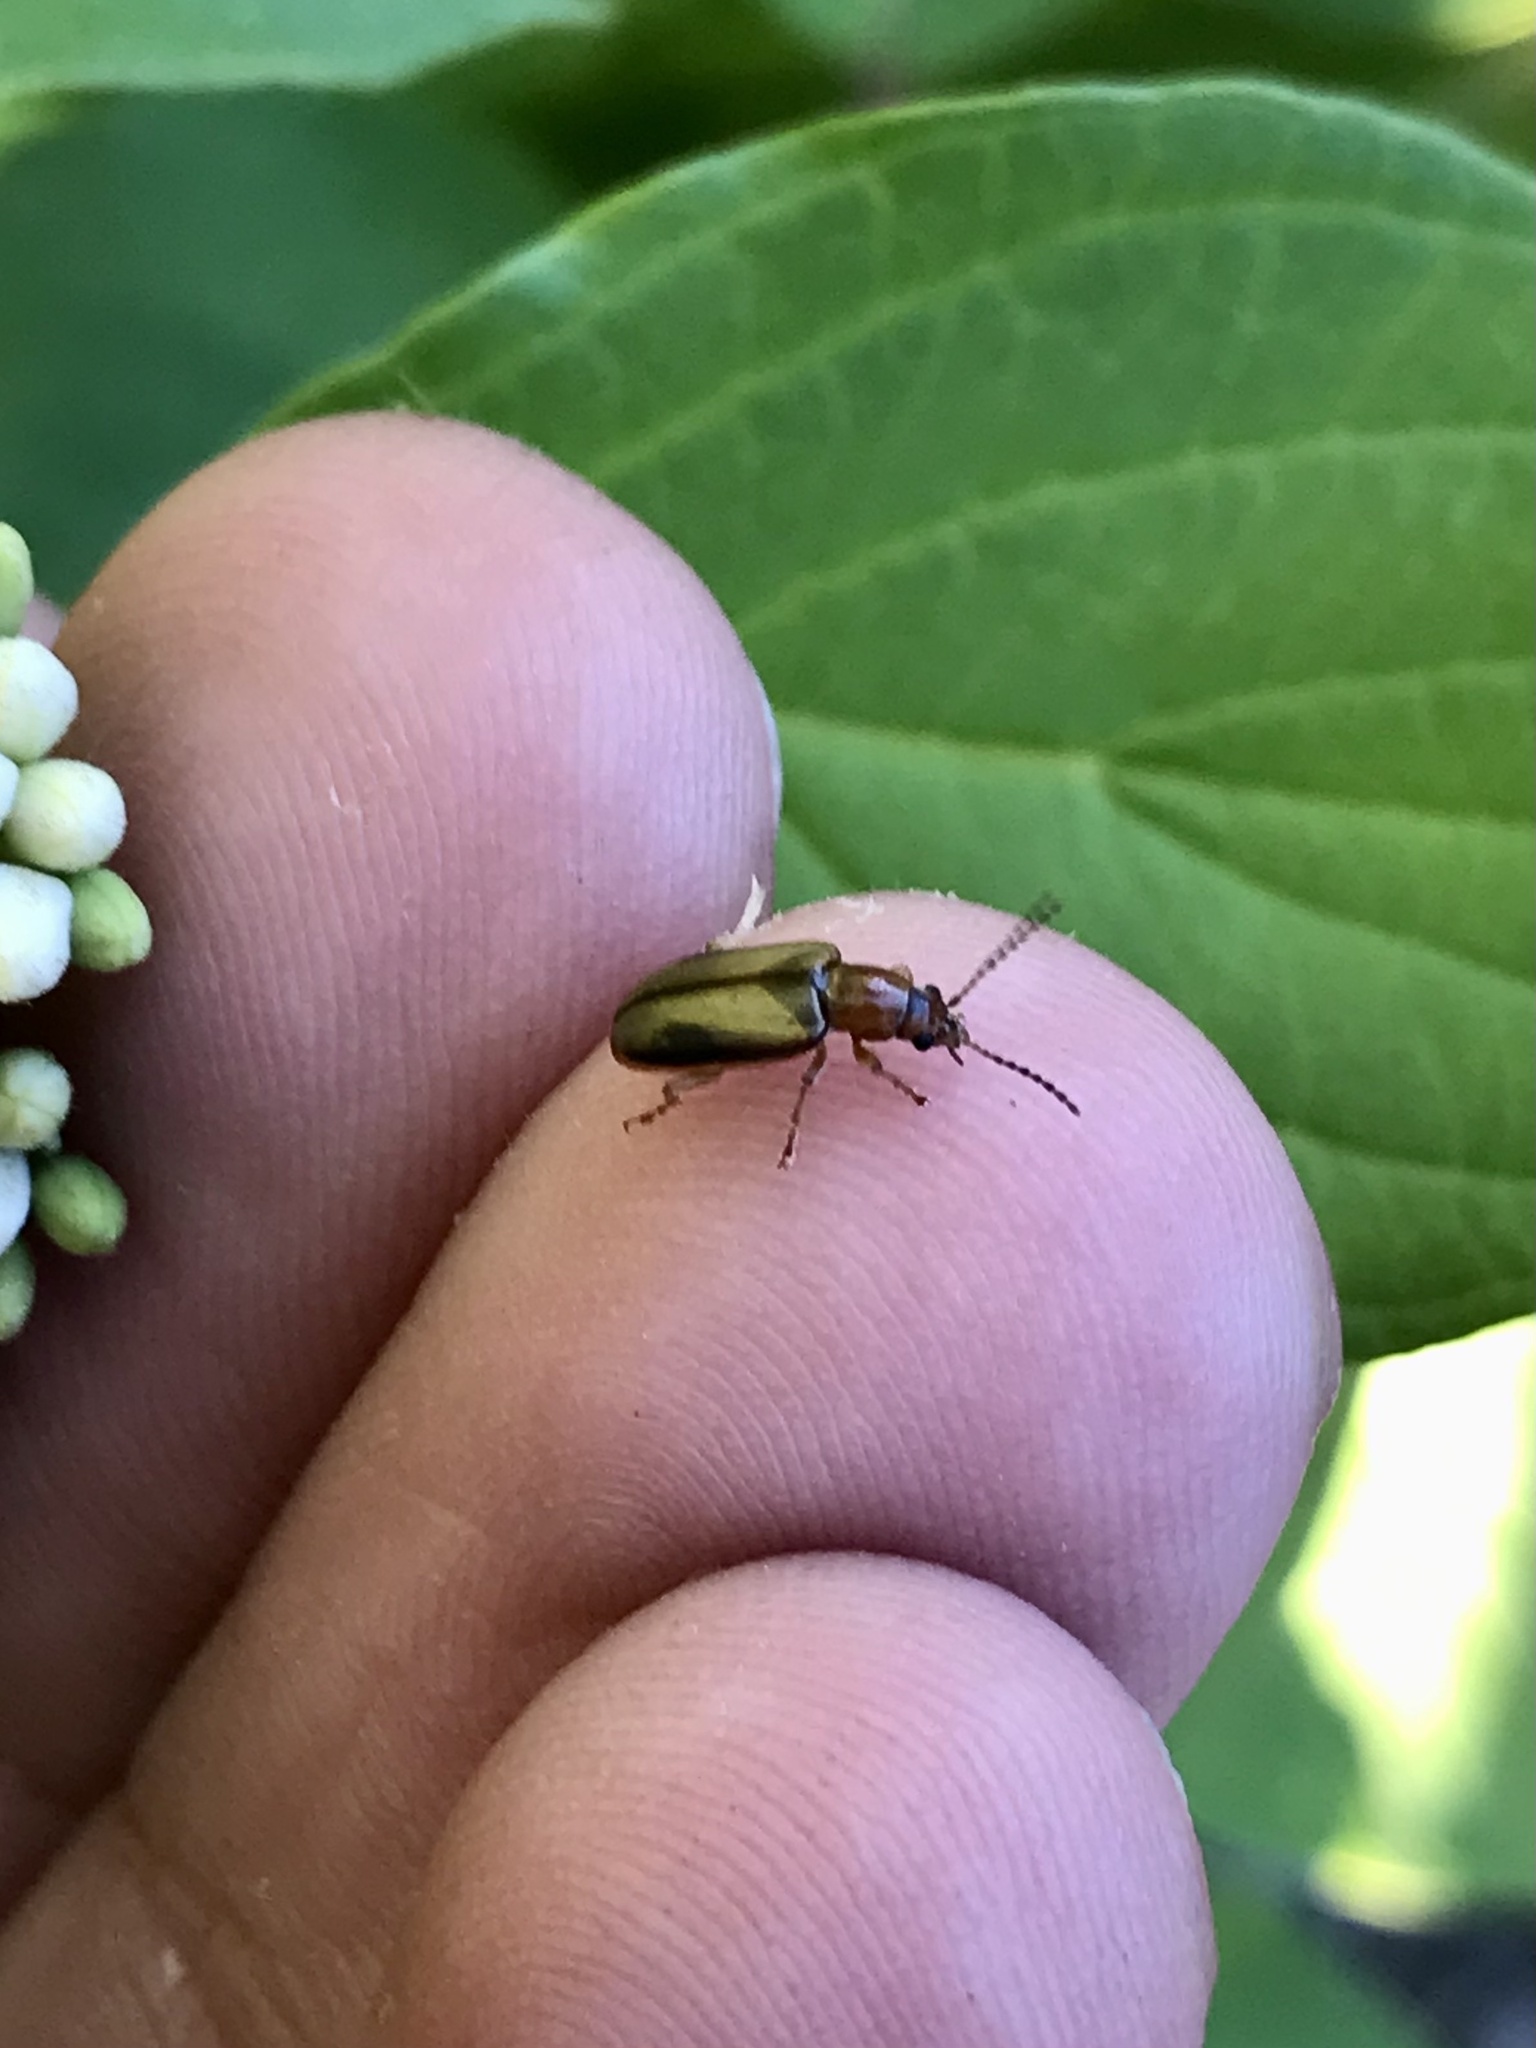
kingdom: Animalia
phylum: Arthropoda
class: Insecta
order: Coleoptera
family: Orsodacnidae
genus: Orsodacne
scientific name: Orsodacne atra
